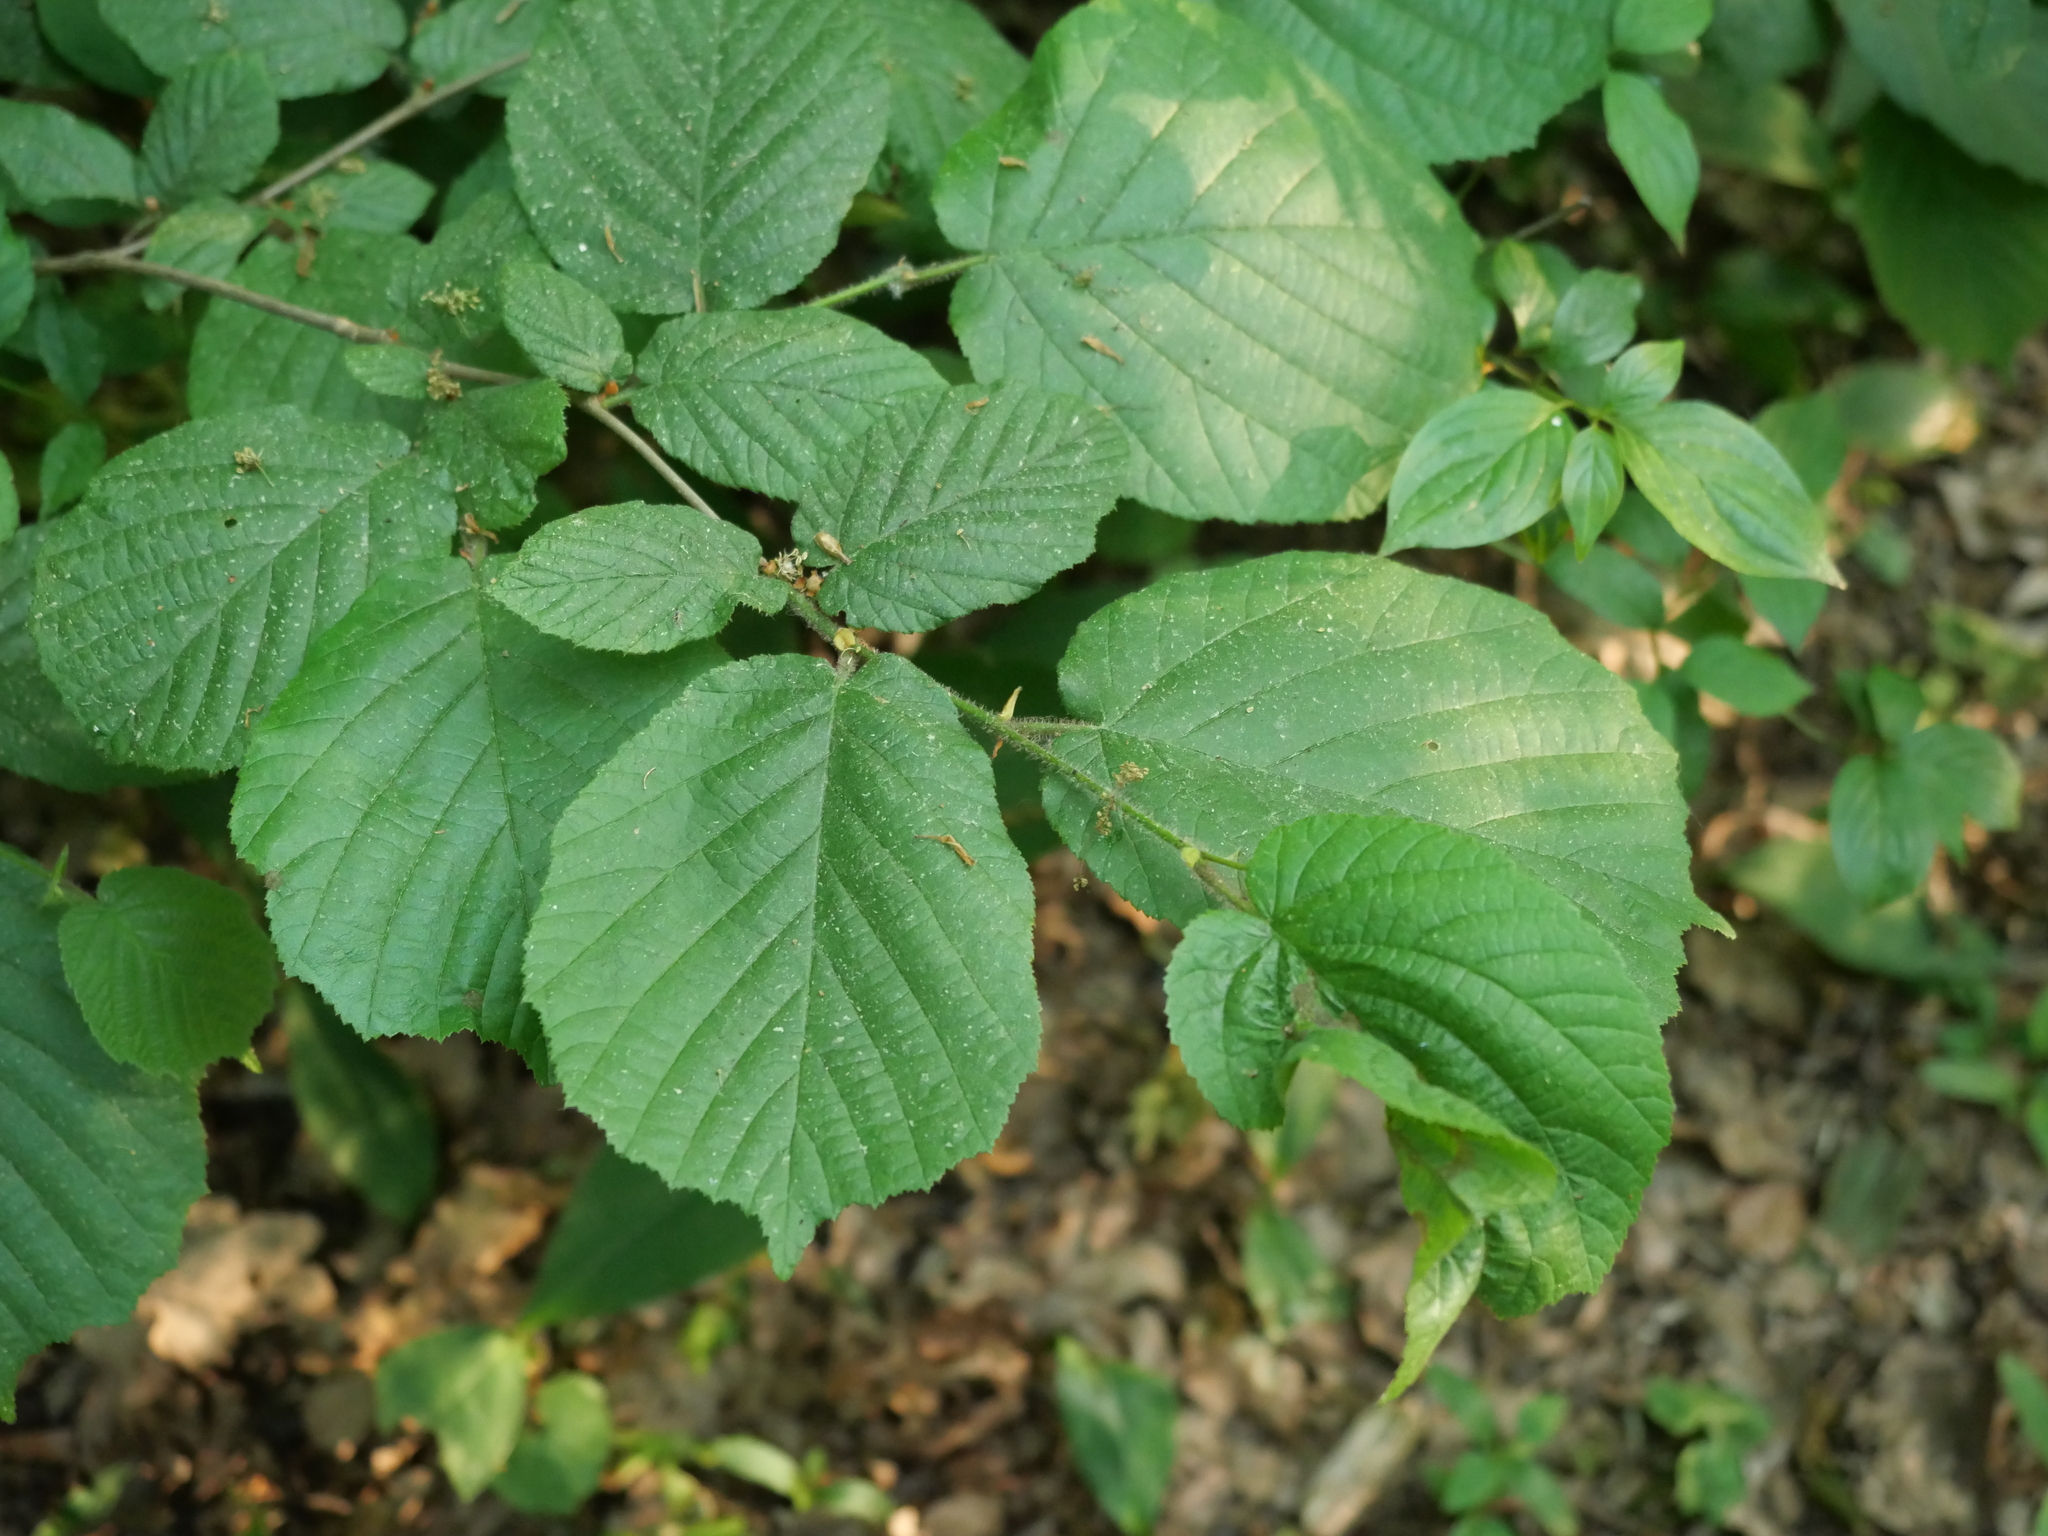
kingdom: Plantae
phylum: Tracheophyta
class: Magnoliopsida
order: Fagales
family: Betulaceae
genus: Corylus
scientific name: Corylus avellana
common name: European hazel
